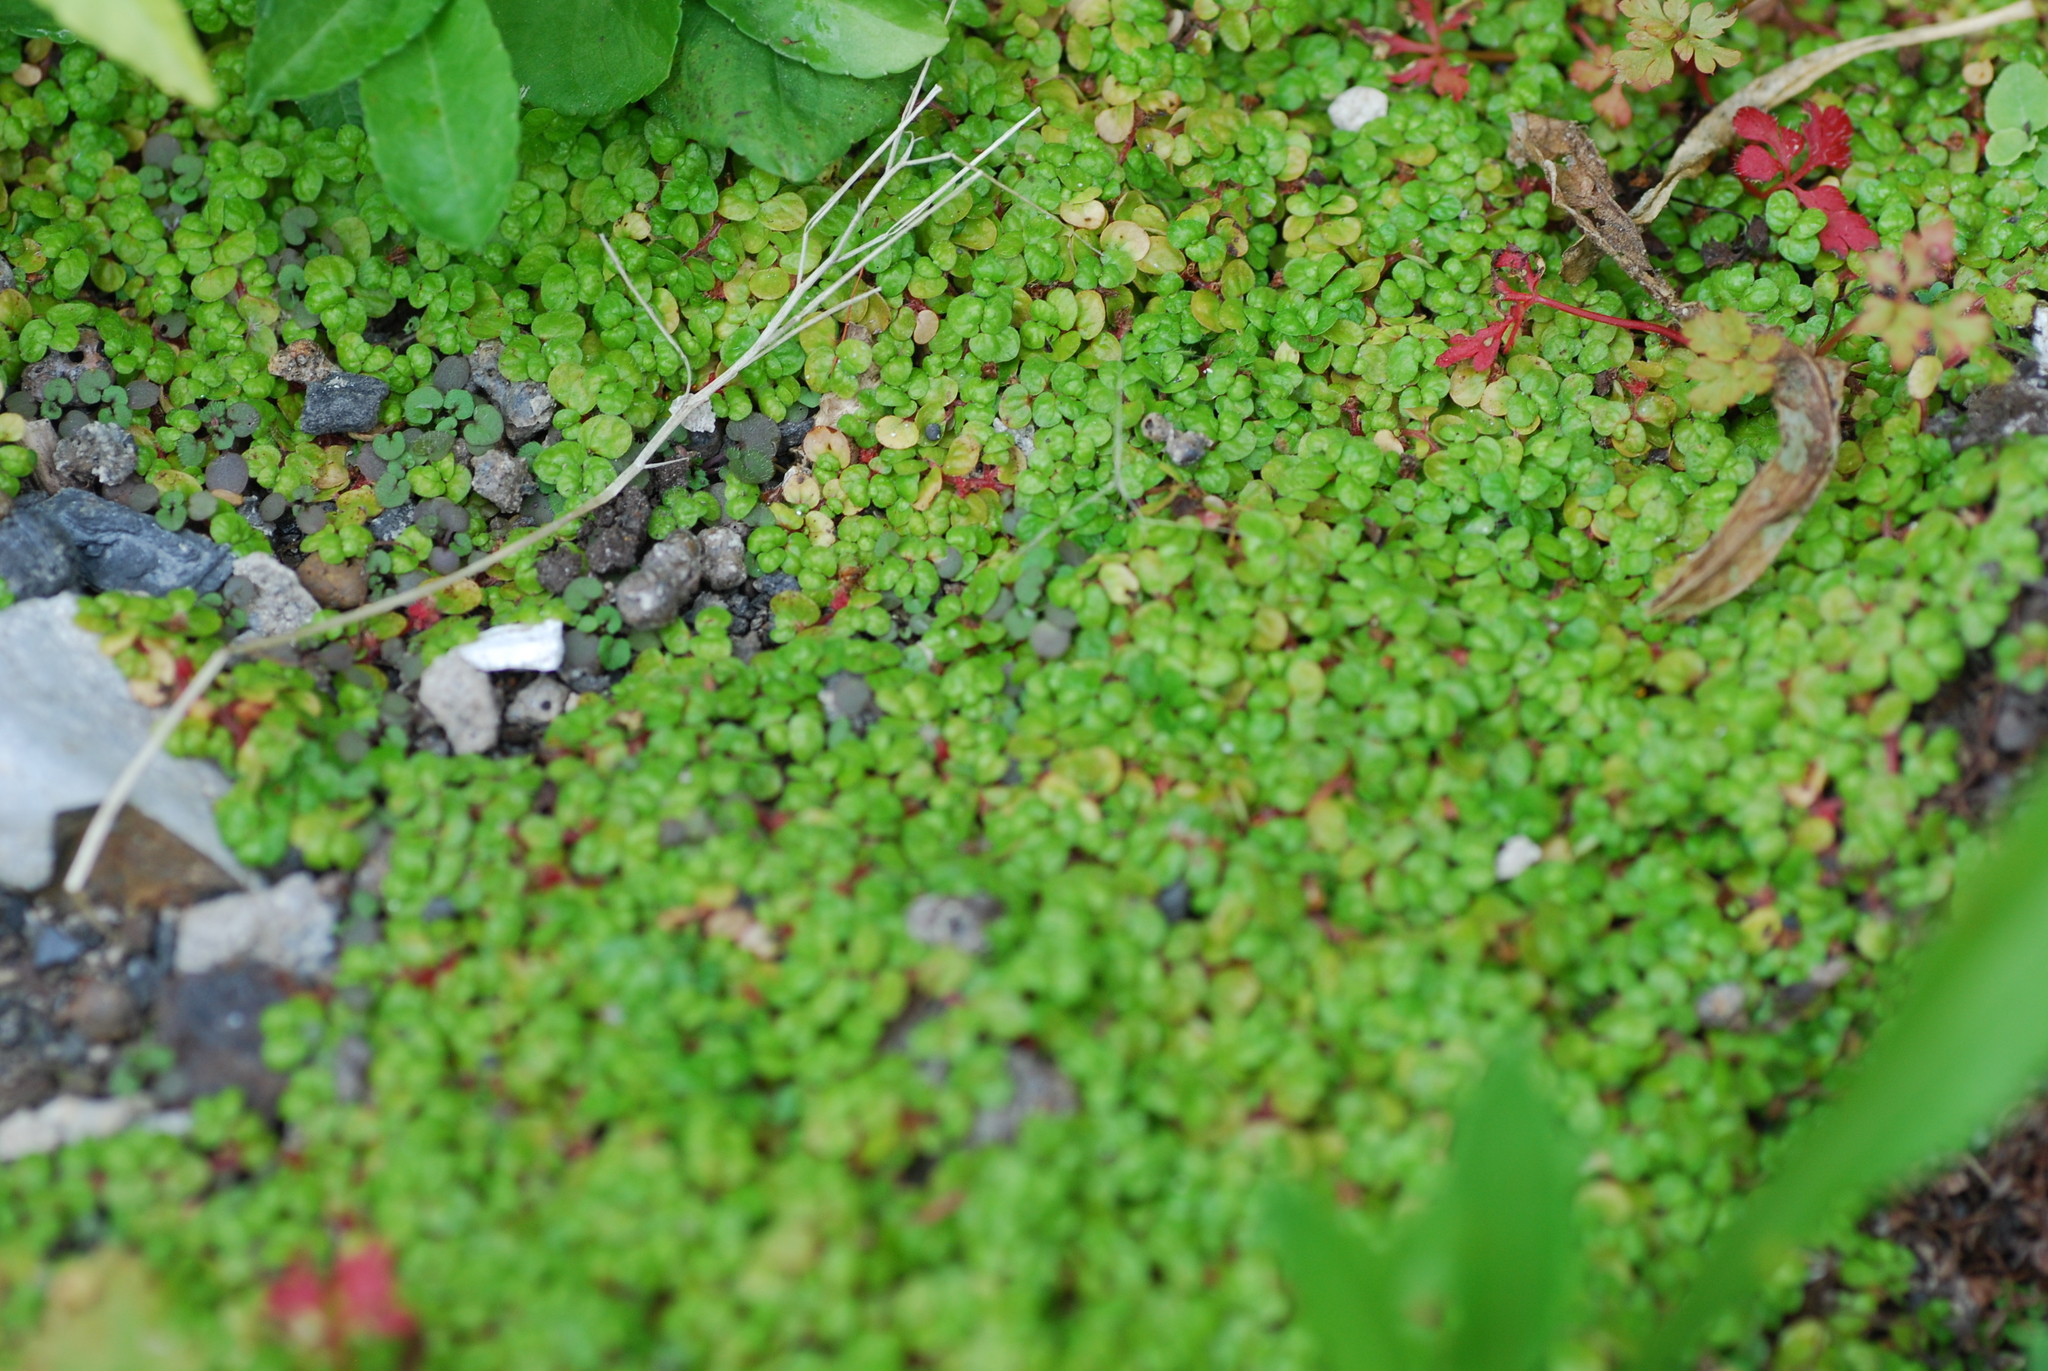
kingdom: Plantae
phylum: Tracheophyta
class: Magnoliopsida
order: Rosales
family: Urticaceae
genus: Soleirolia
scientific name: Soleirolia soleirolii
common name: Mind-your-own-business
